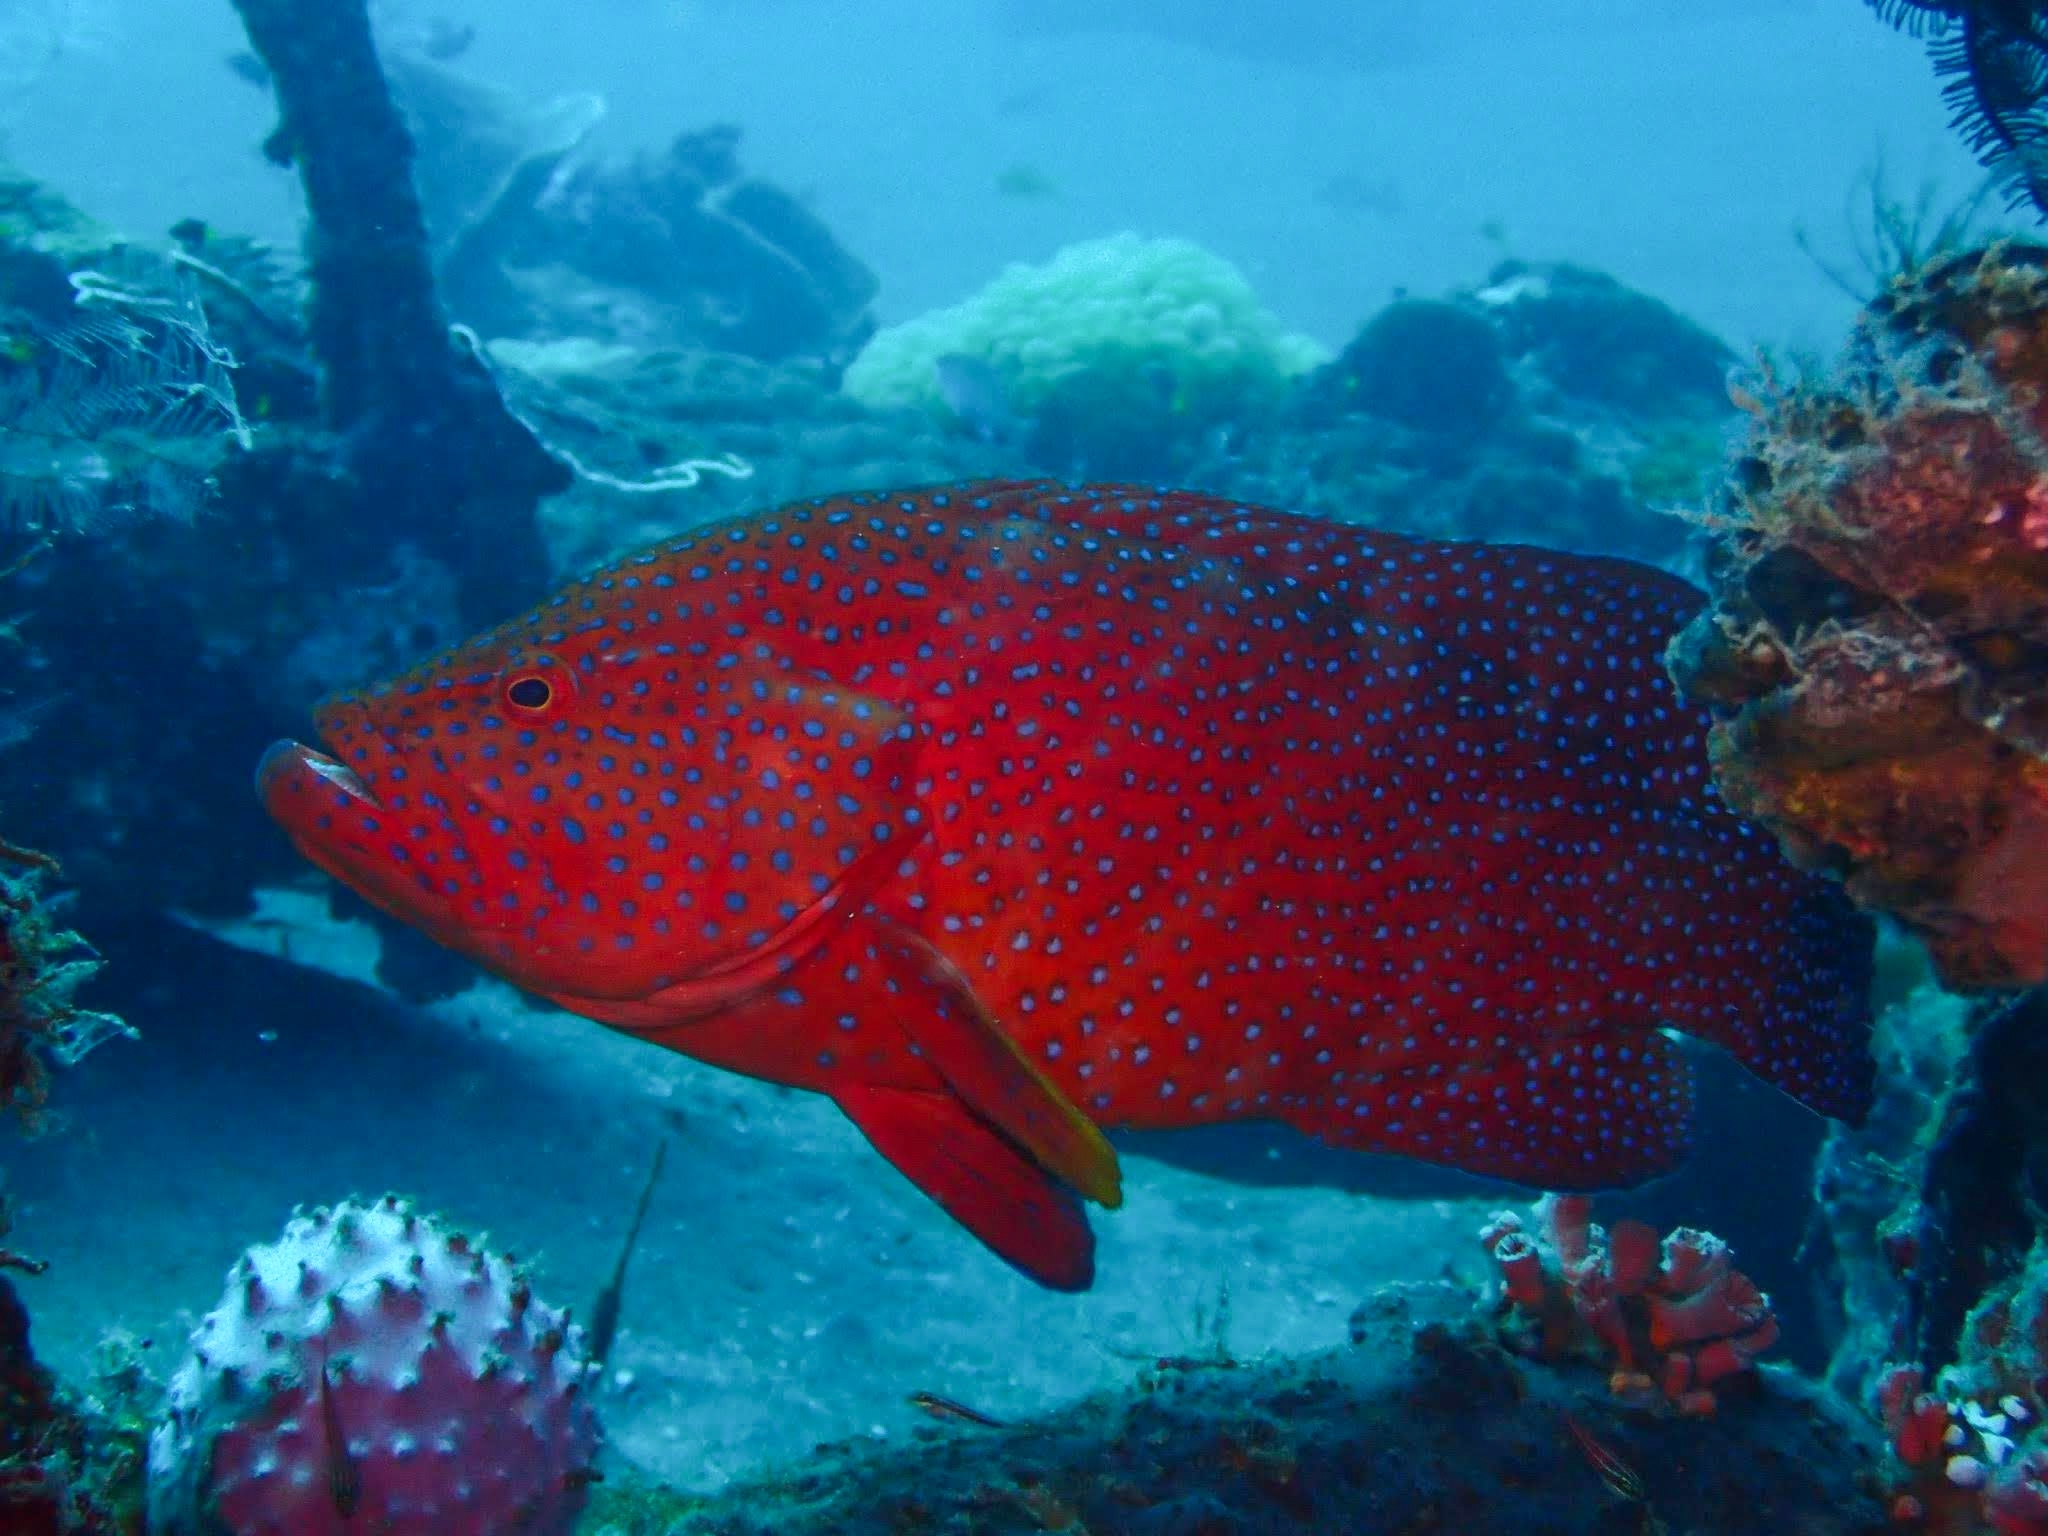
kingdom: Animalia
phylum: Chordata
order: Perciformes
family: Serranidae
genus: Cephalopholis
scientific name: Cephalopholis miniata
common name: Coral hind
